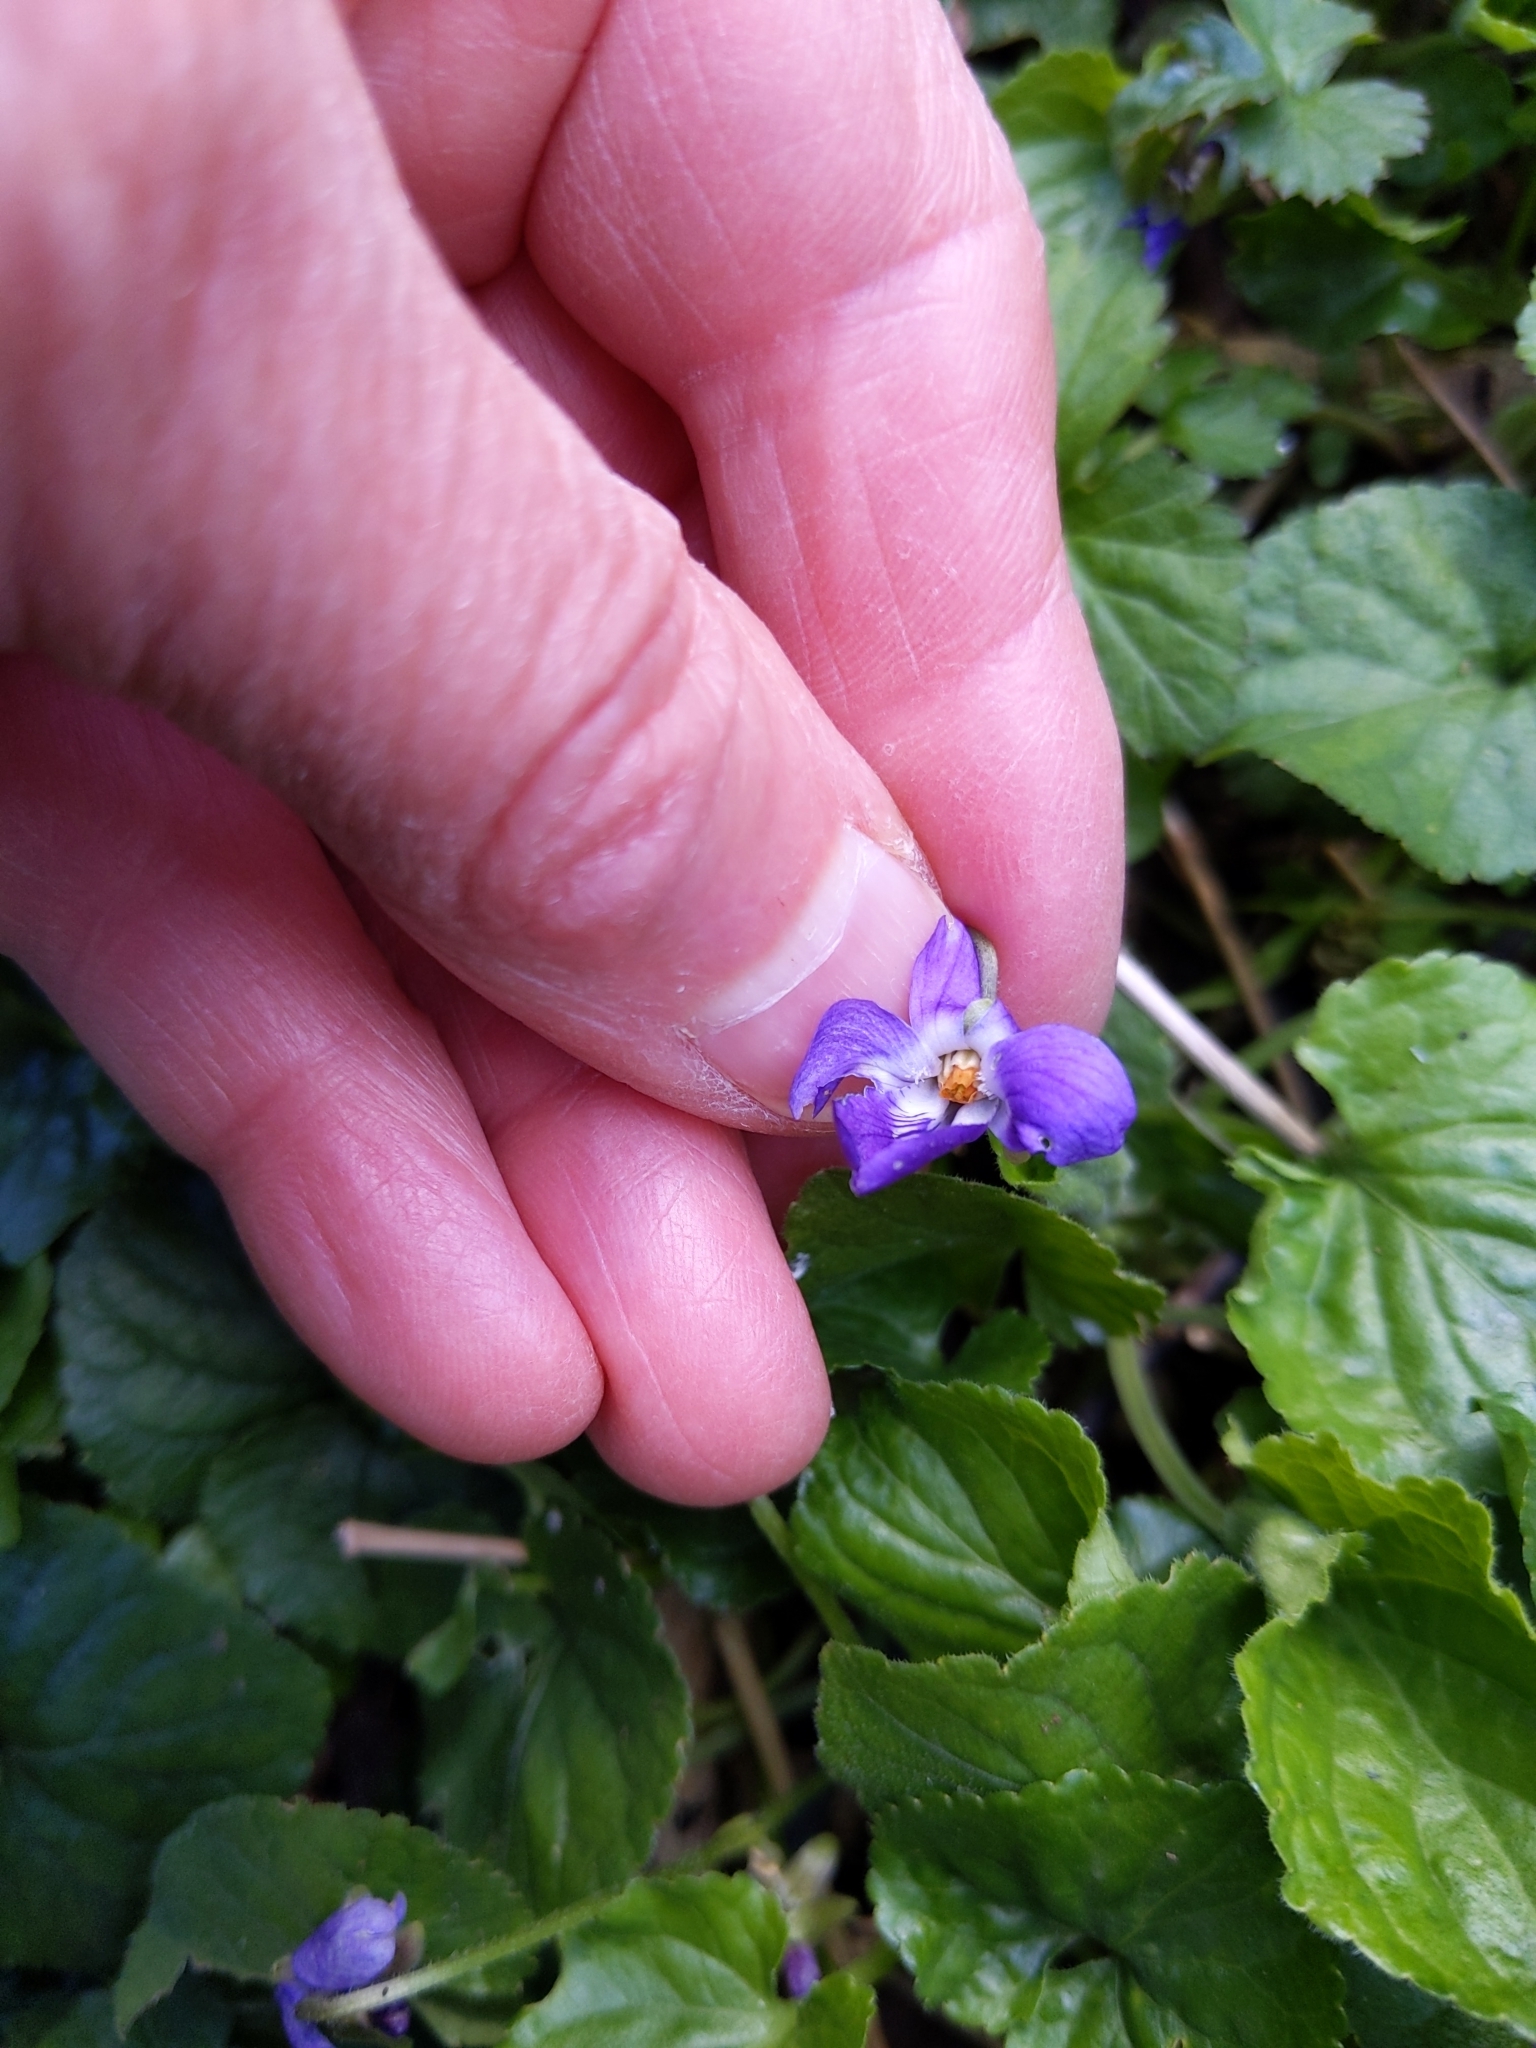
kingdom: Plantae
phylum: Tracheophyta
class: Magnoliopsida
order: Malpighiales
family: Violaceae
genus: Viola
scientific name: Viola odorata
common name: Sweet violet
